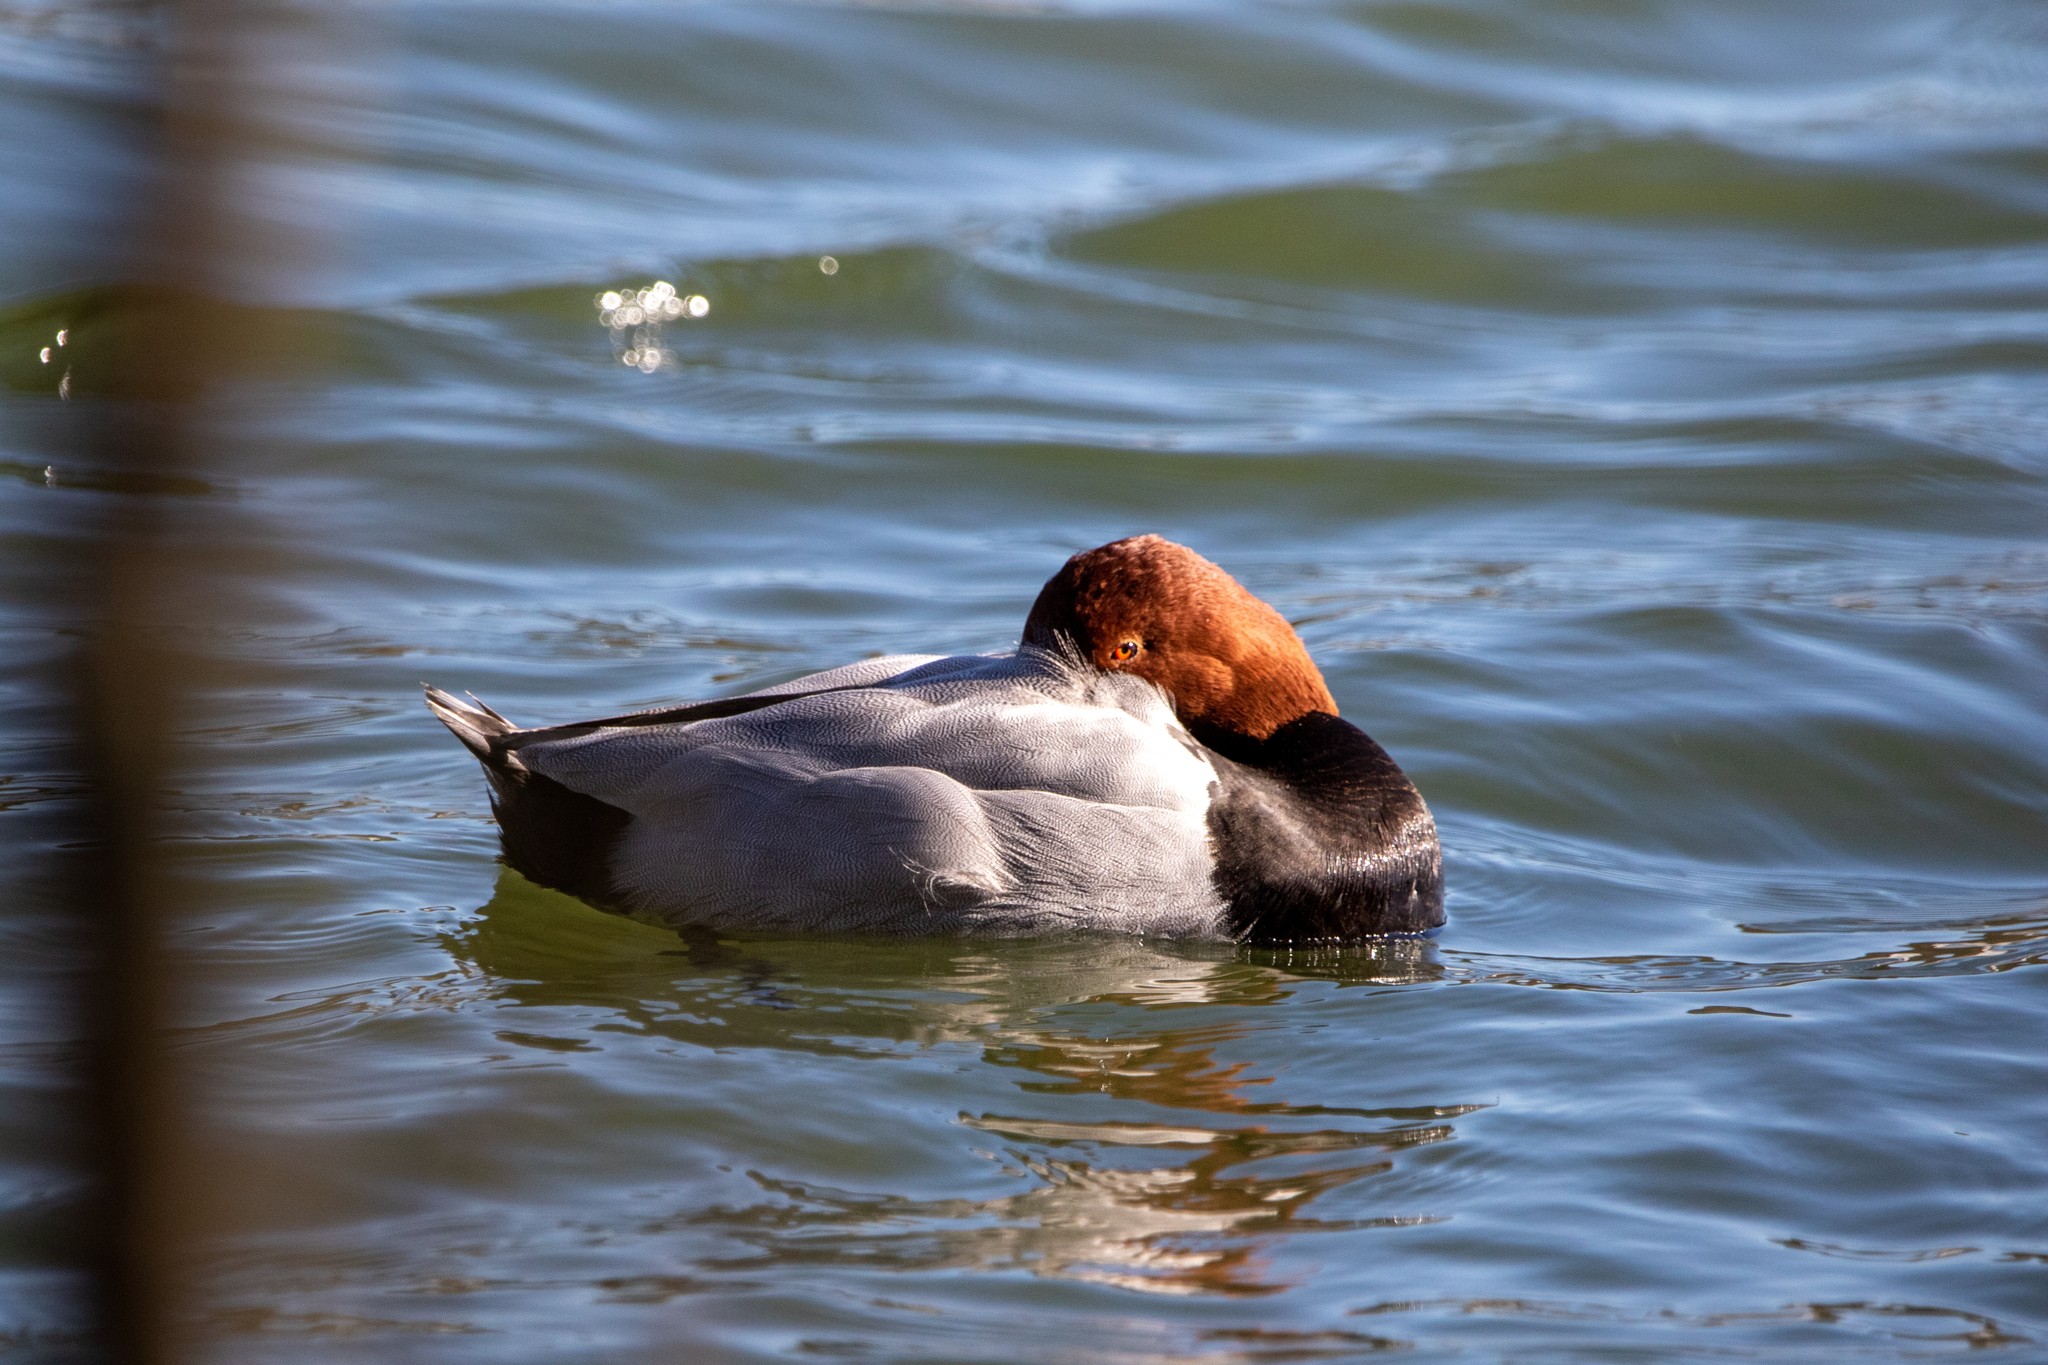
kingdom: Animalia
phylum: Chordata
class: Aves
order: Anseriformes
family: Anatidae
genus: Aythya
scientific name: Aythya ferina
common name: Common pochard
